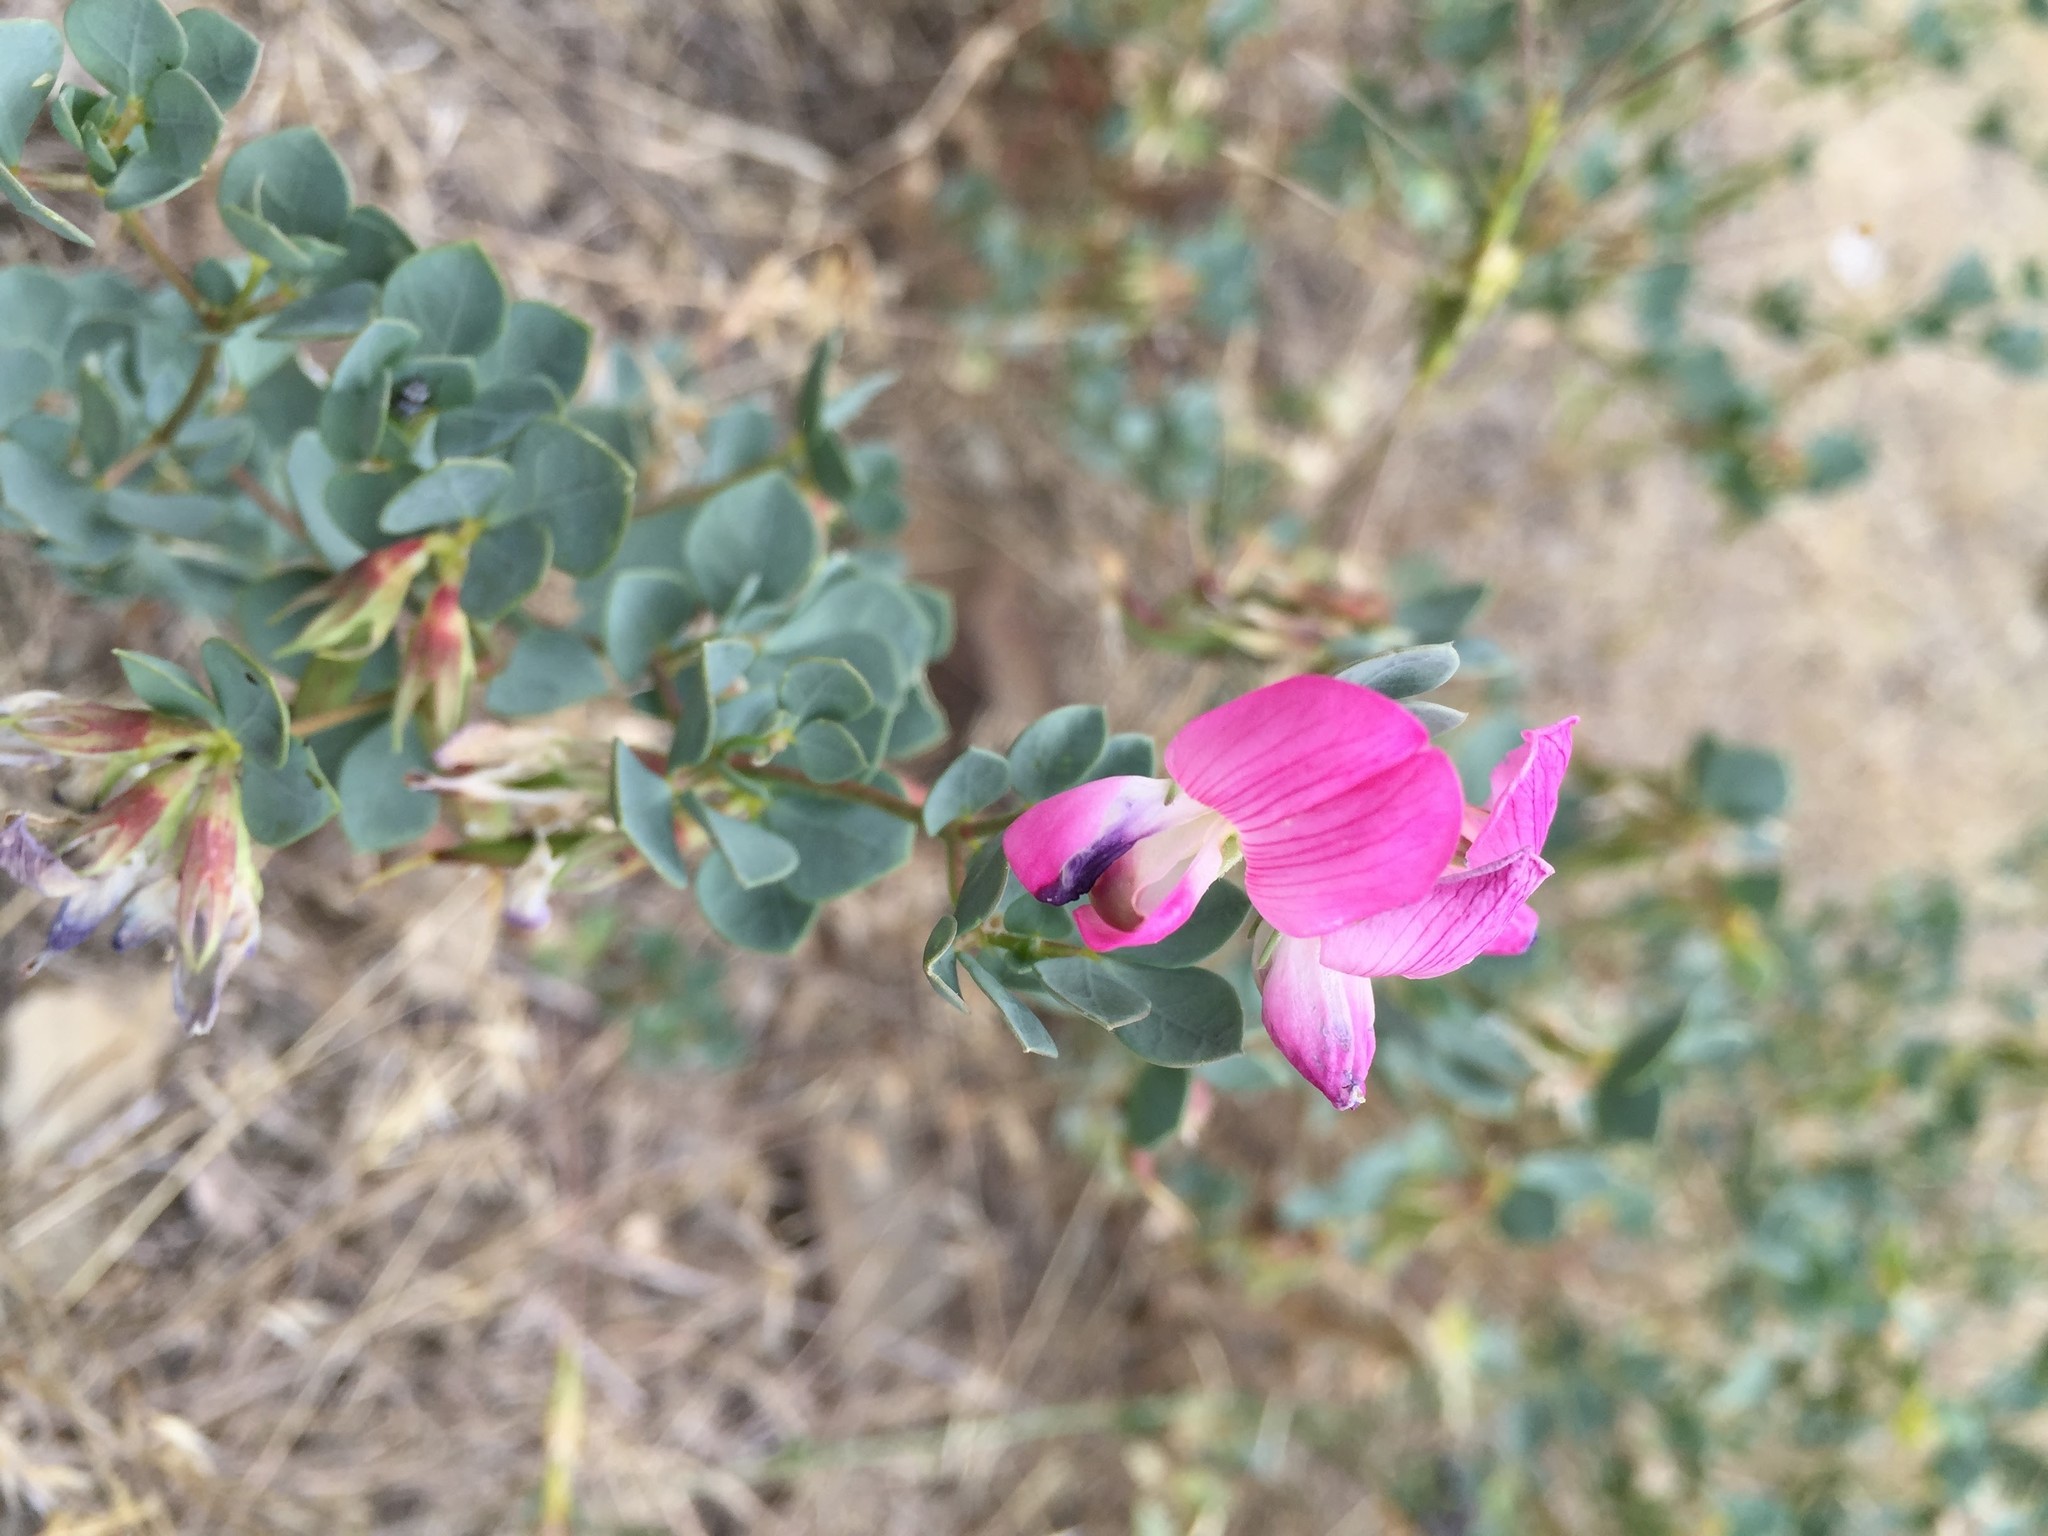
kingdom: Plantae
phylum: Tracheophyta
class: Magnoliopsida
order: Fabales
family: Fabaceae
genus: Lotus
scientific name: Lotus gebelia
